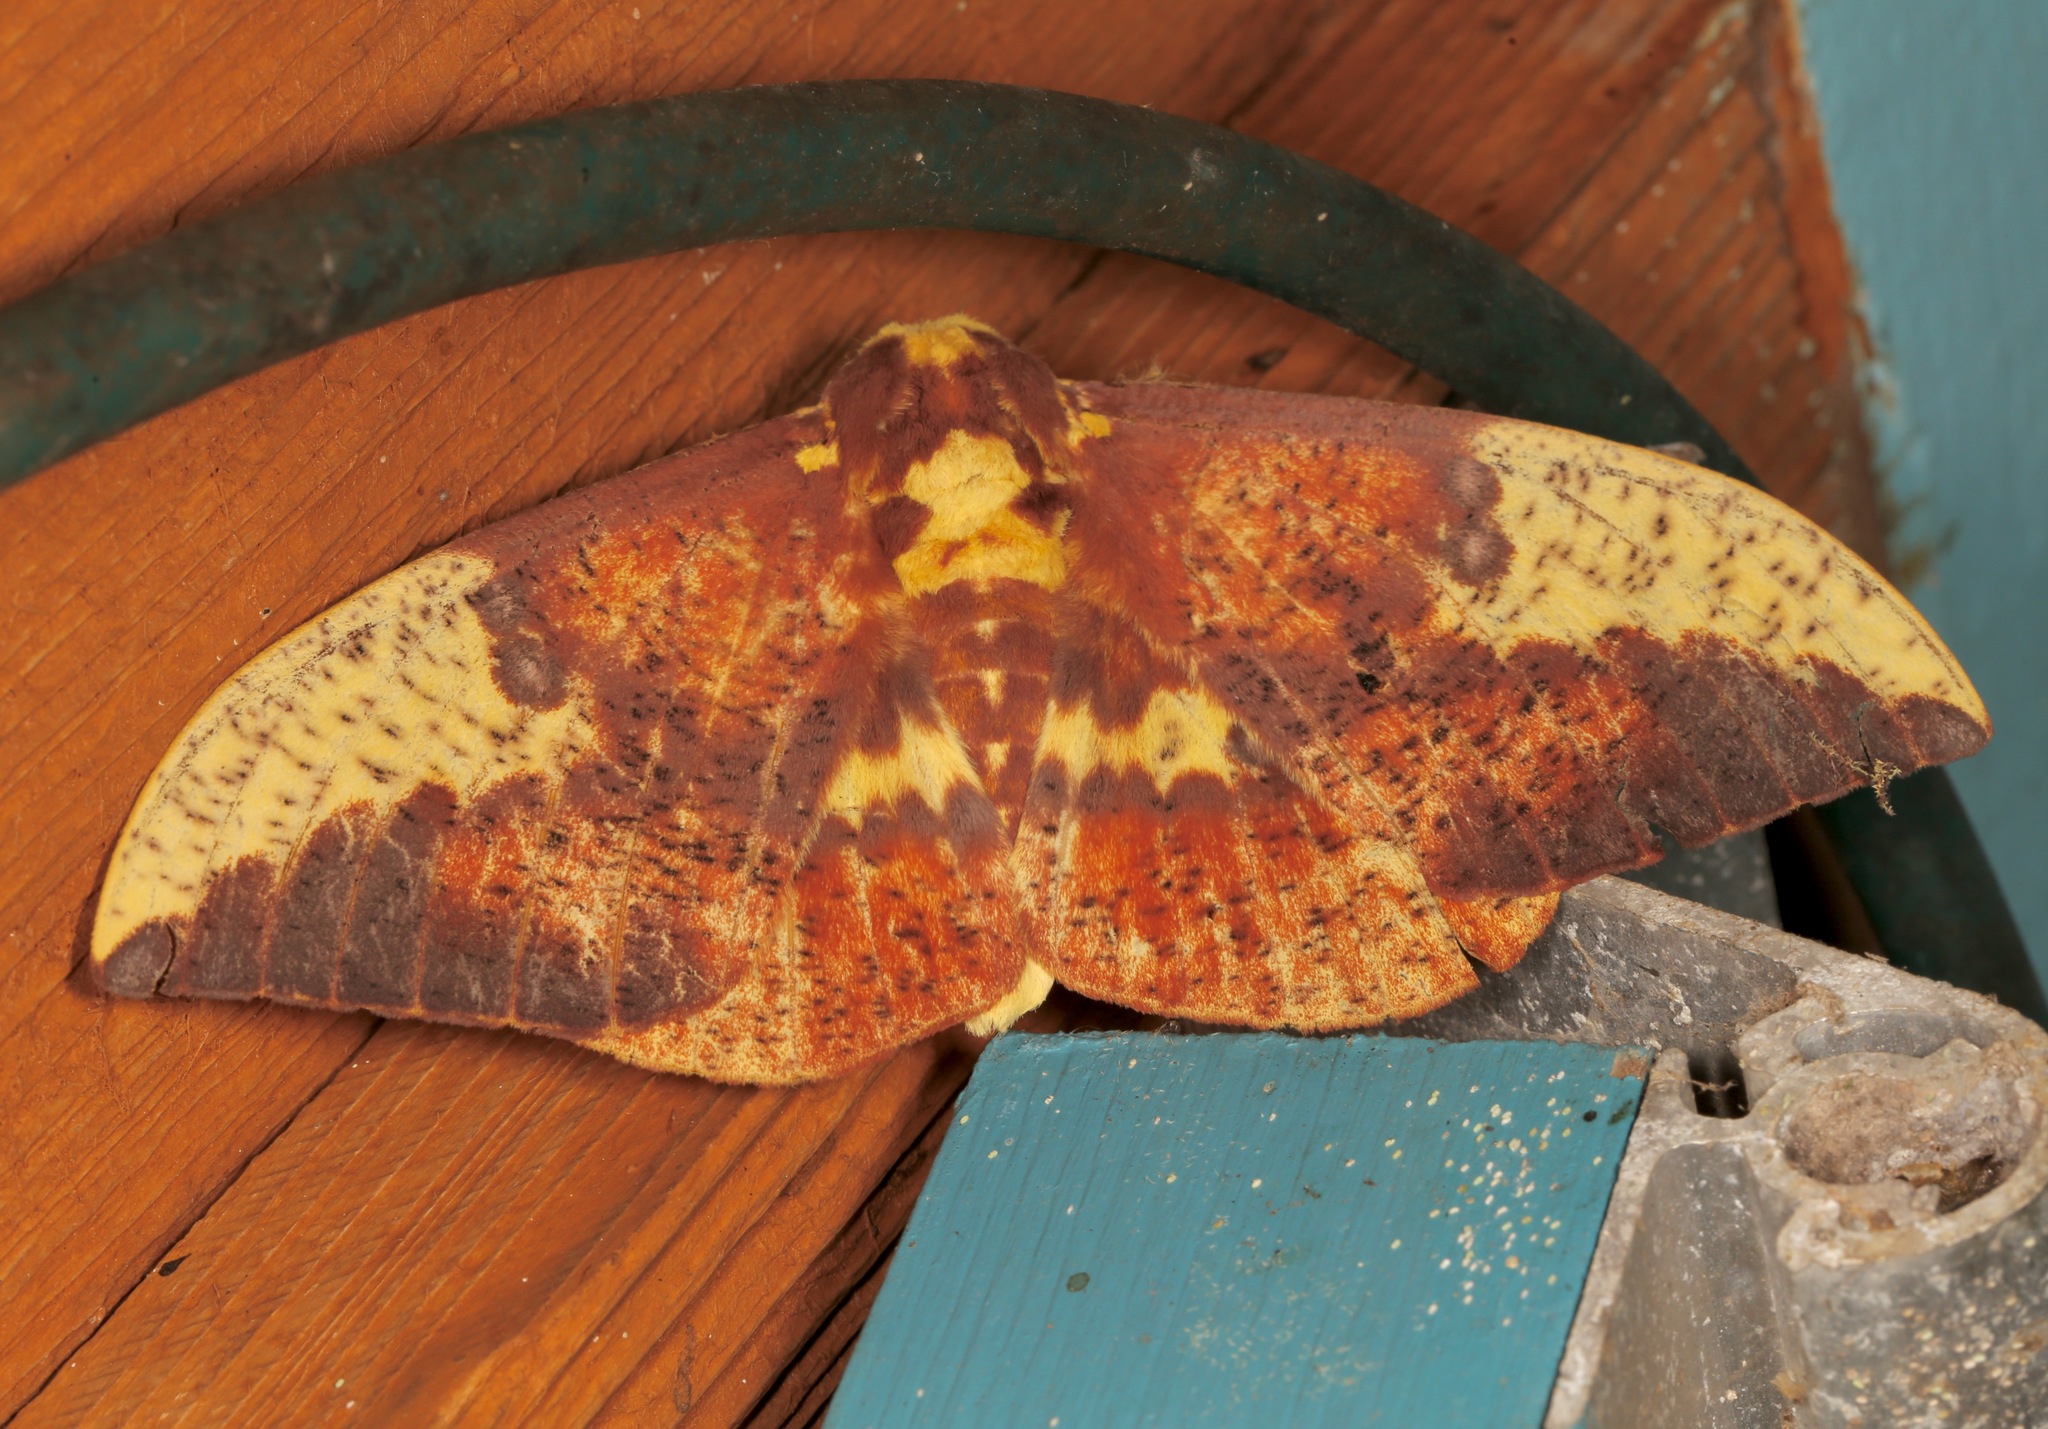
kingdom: Animalia
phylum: Arthropoda
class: Insecta
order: Lepidoptera
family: Saturniidae
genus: Eacles
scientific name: Eacles imperialis
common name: Imperial moth
